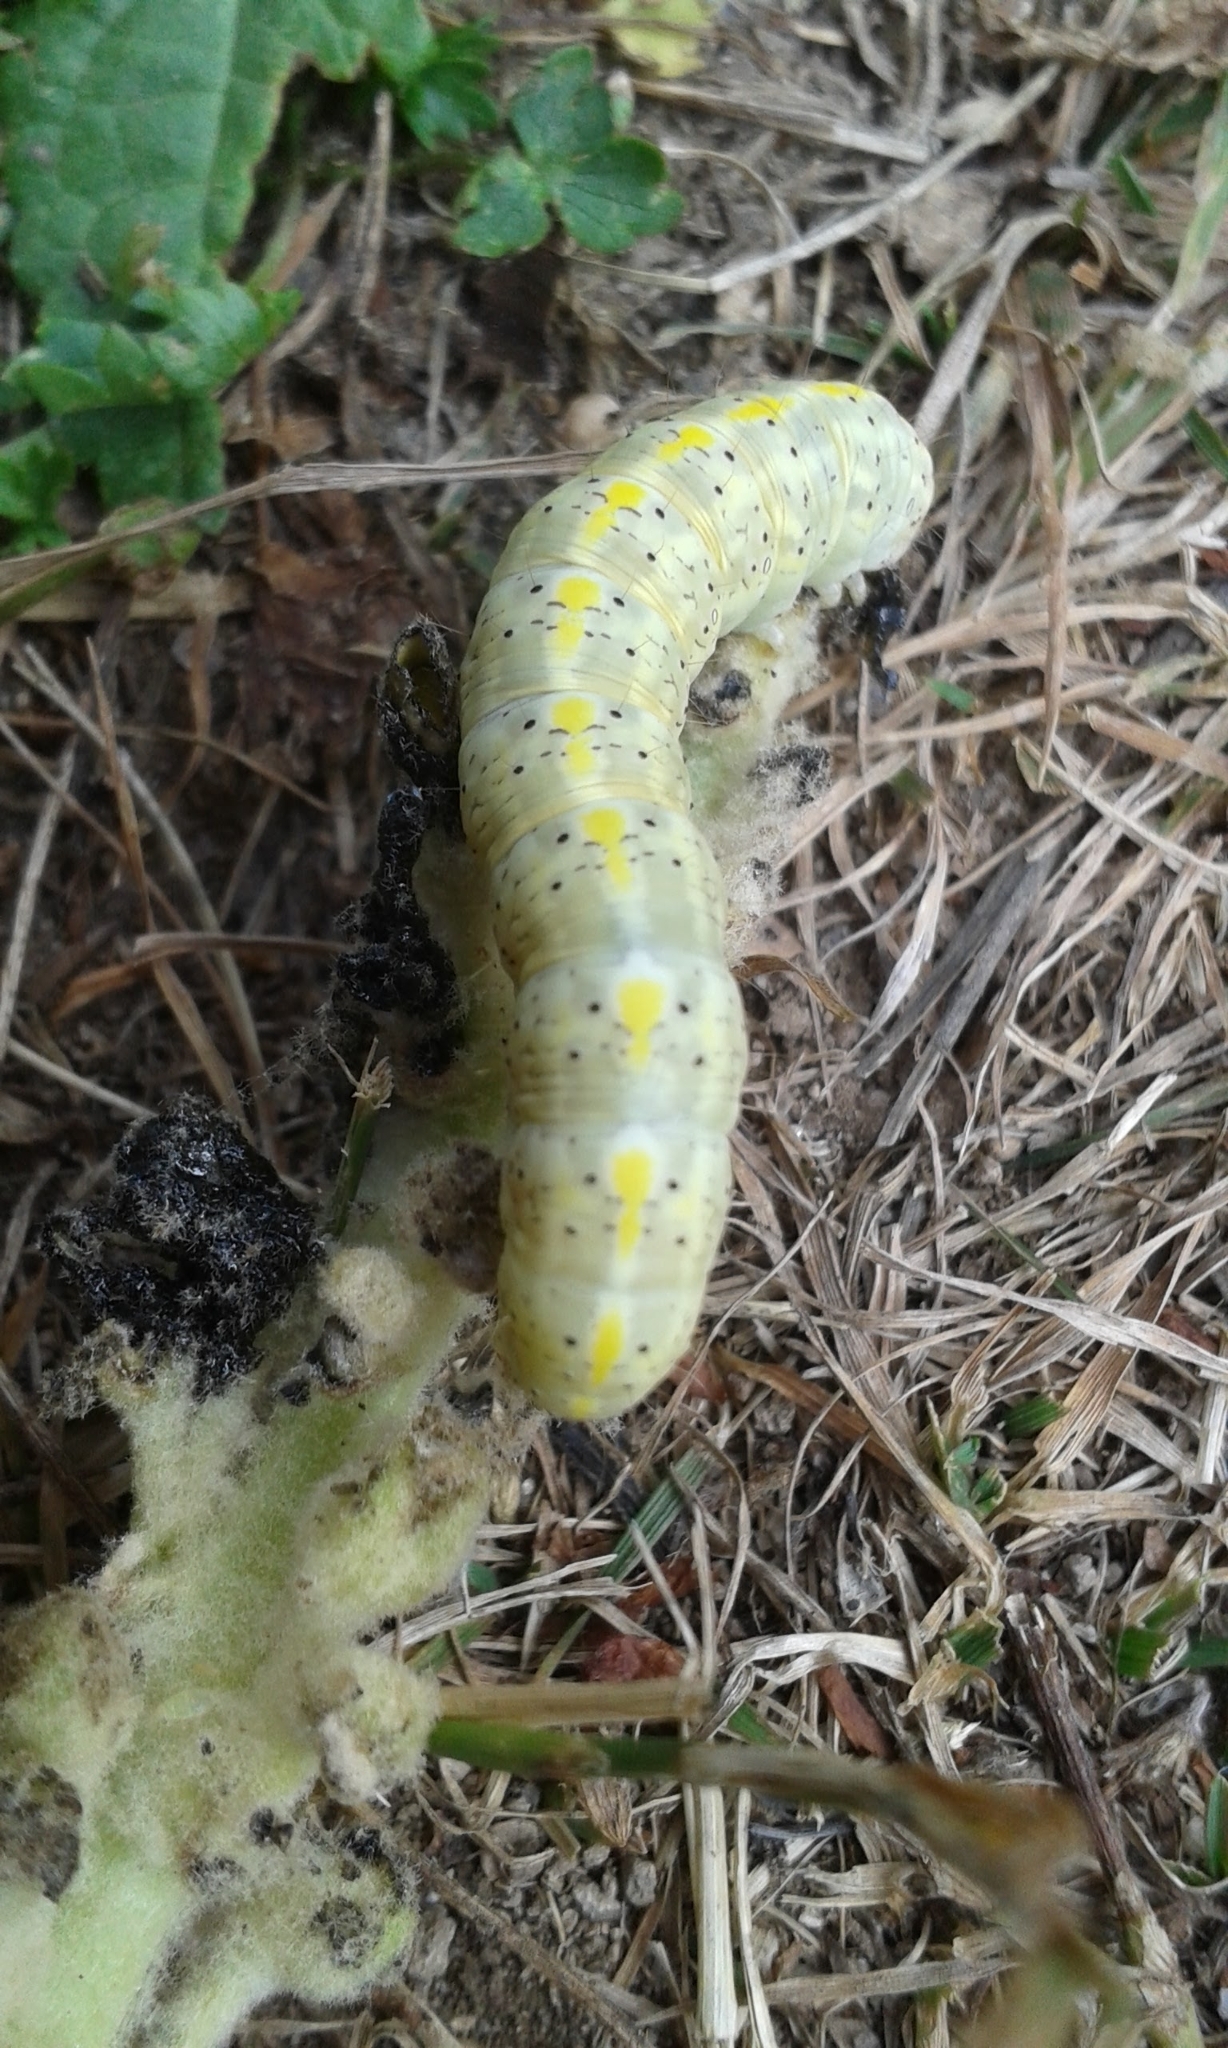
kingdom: Animalia
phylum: Arthropoda
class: Insecta
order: Lepidoptera
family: Noctuidae
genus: Cucullia
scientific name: Cucullia thapsiphaga
